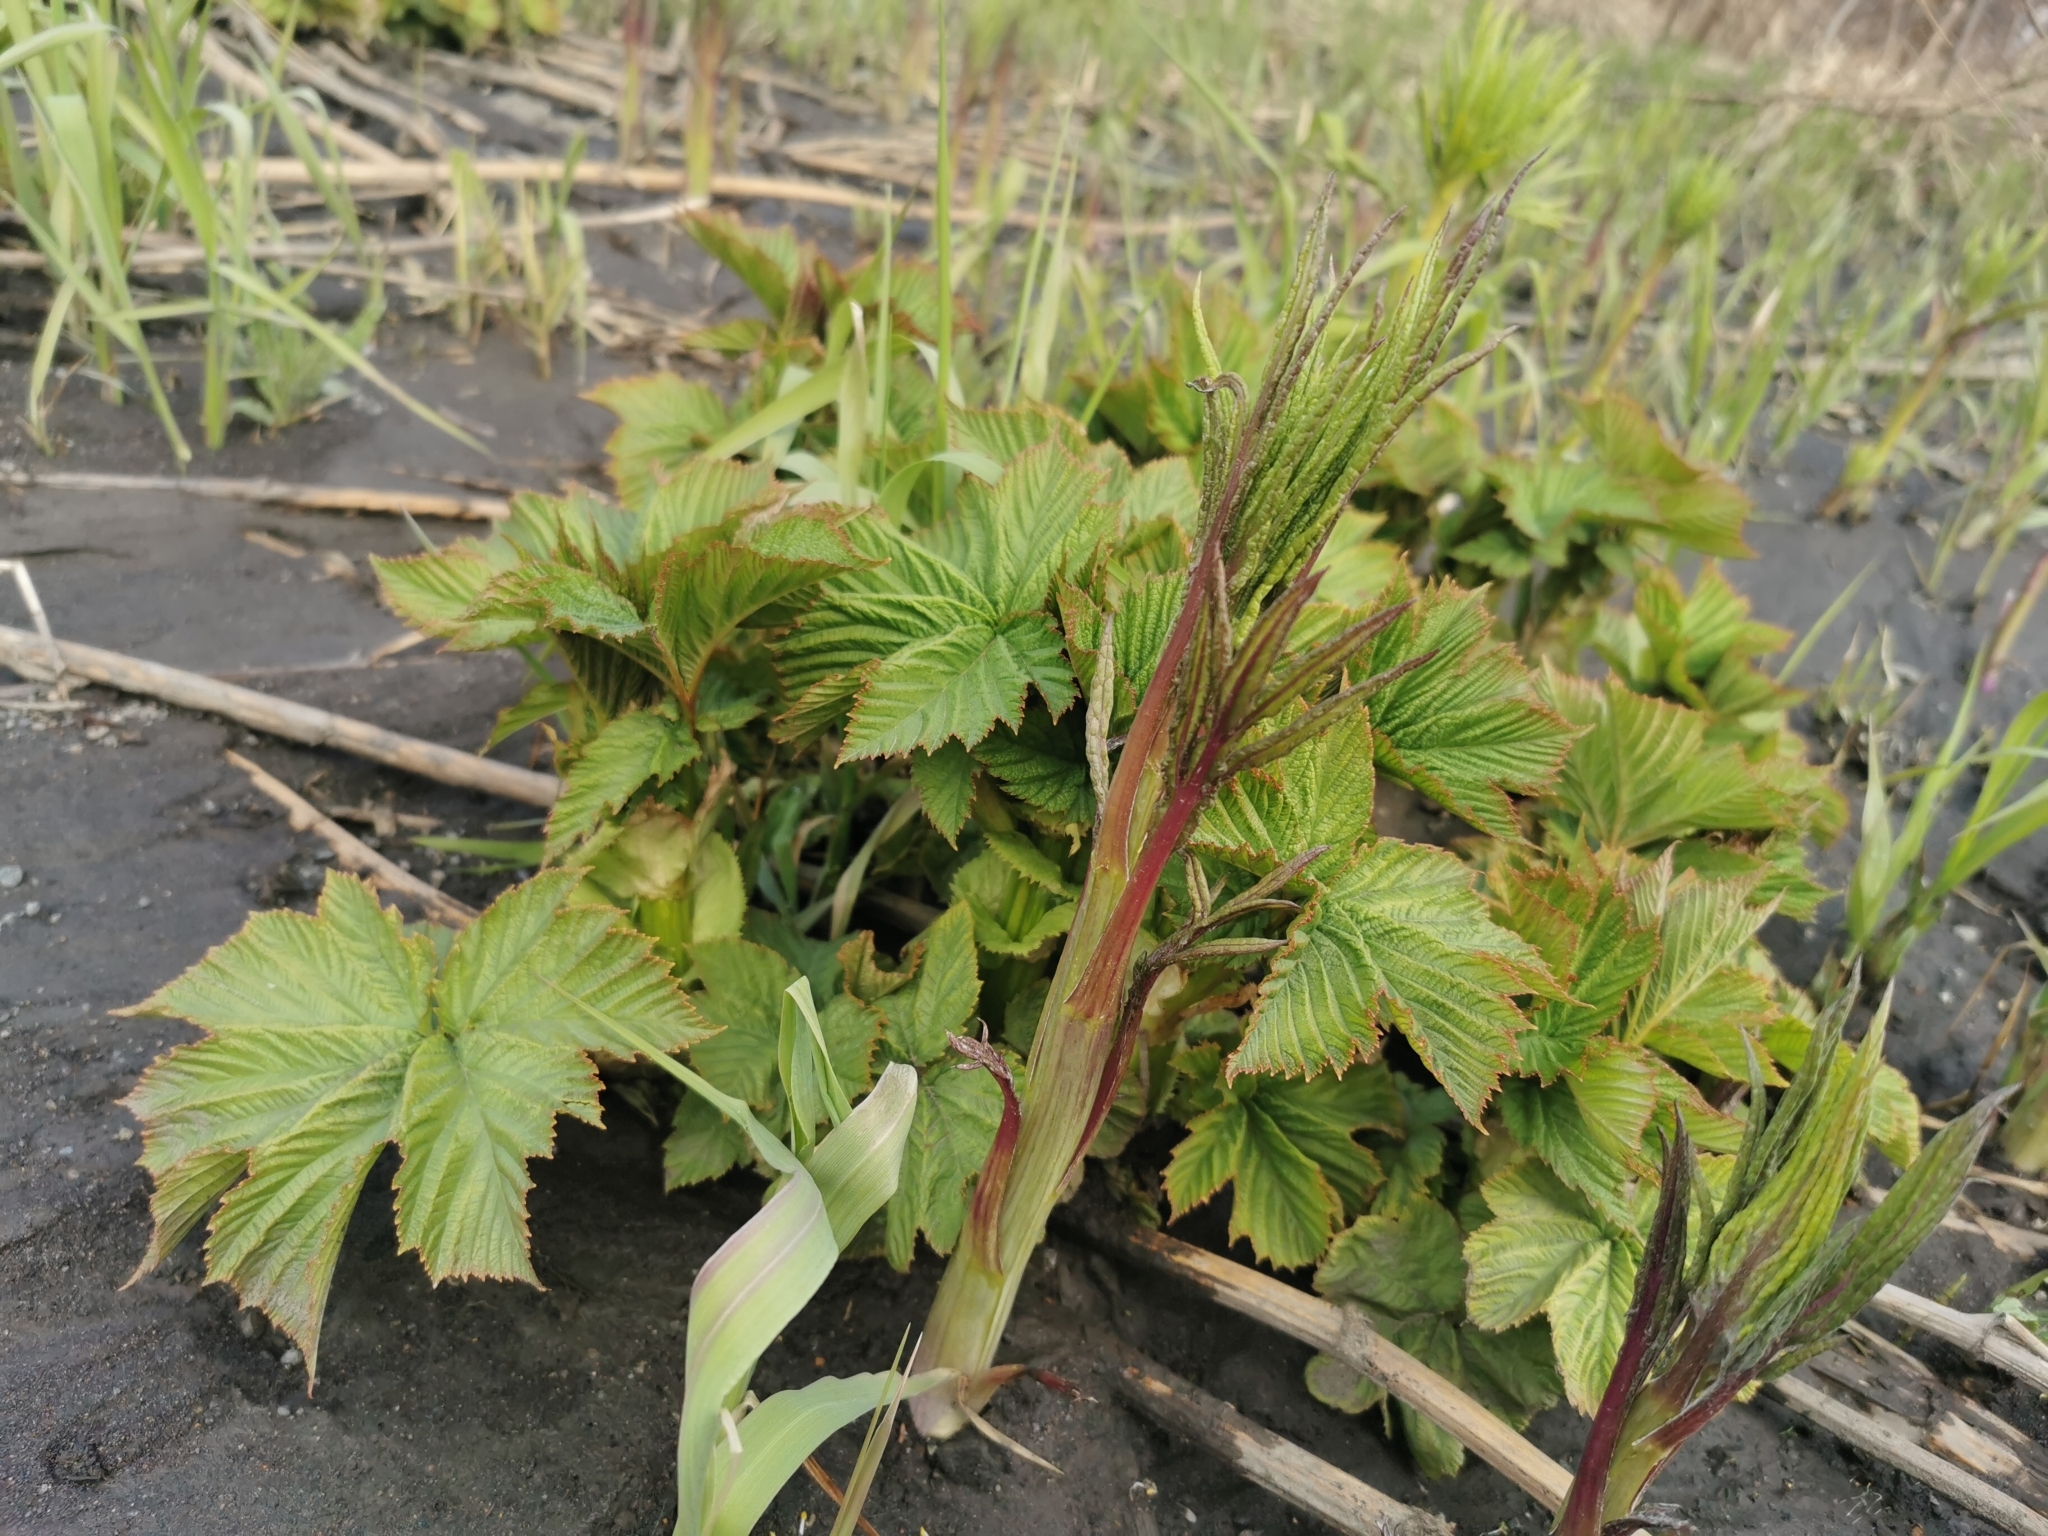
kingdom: Plantae
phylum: Tracheophyta
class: Magnoliopsida
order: Rosales
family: Rosaceae
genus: Filipendula
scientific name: Filipendula camtschatica
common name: Giant meadowsweet
